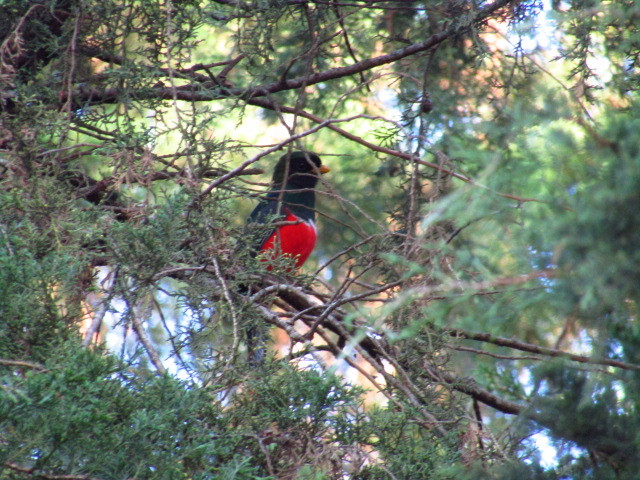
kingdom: Animalia
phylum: Chordata
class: Aves
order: Trogoniformes
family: Trogonidae
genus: Trogon
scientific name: Trogon collaris
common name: Collared trogon
